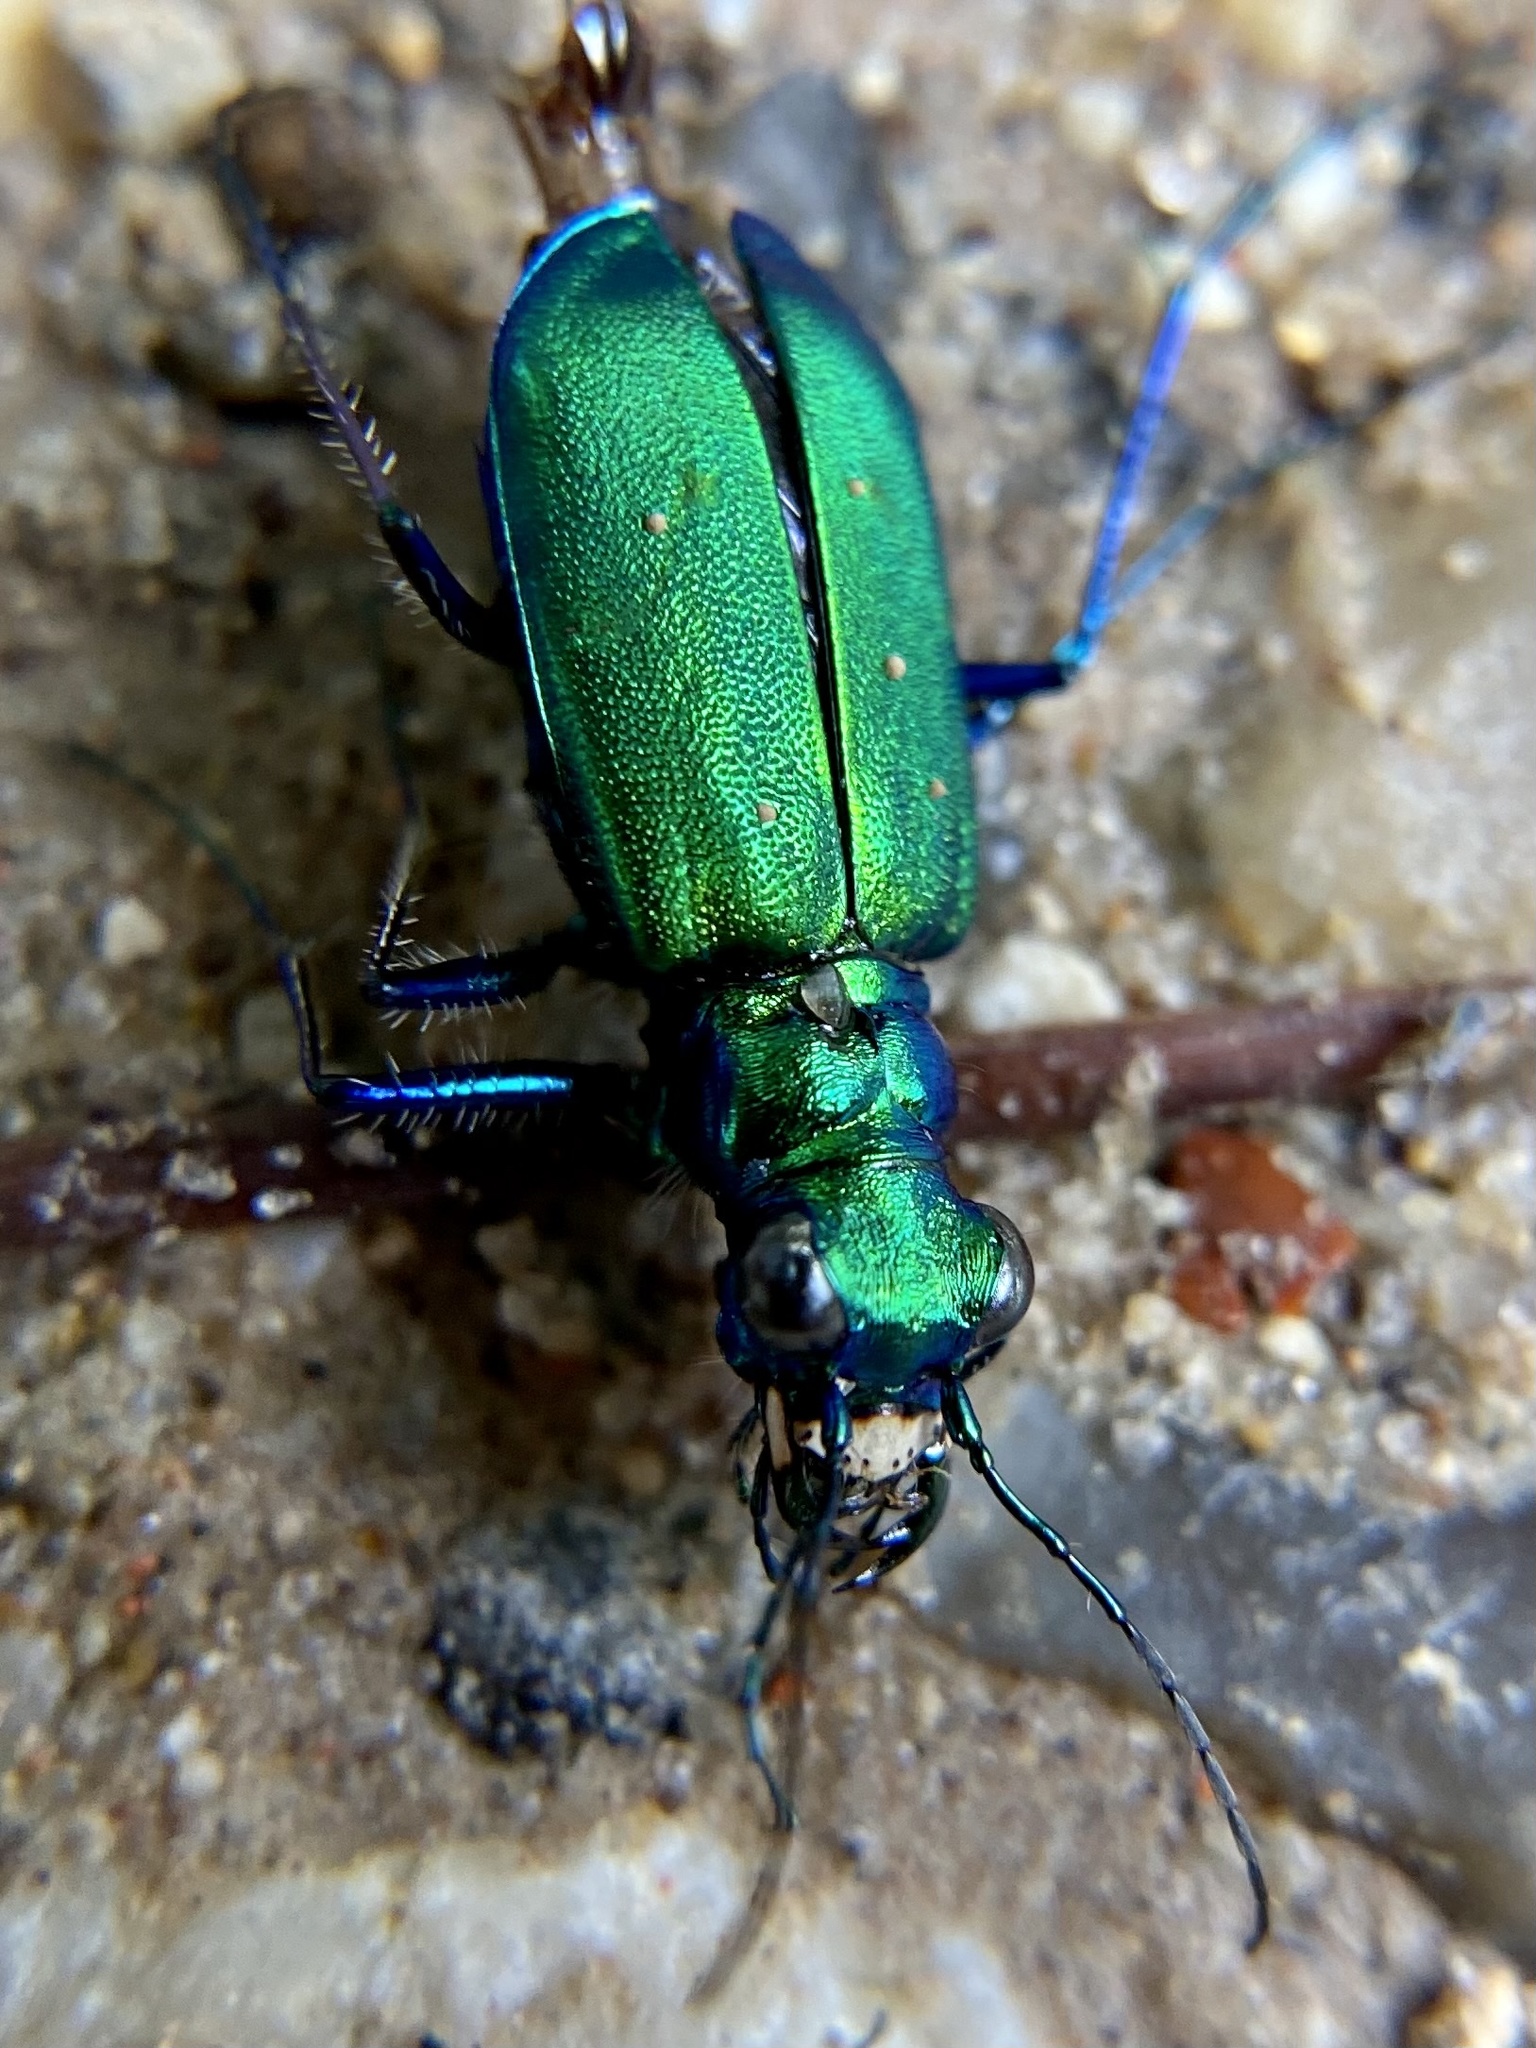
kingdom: Animalia
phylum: Arthropoda
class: Insecta
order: Coleoptera
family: Carabidae
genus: Cicindela
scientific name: Cicindela sexguttata
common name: Six-spotted tiger beetle
